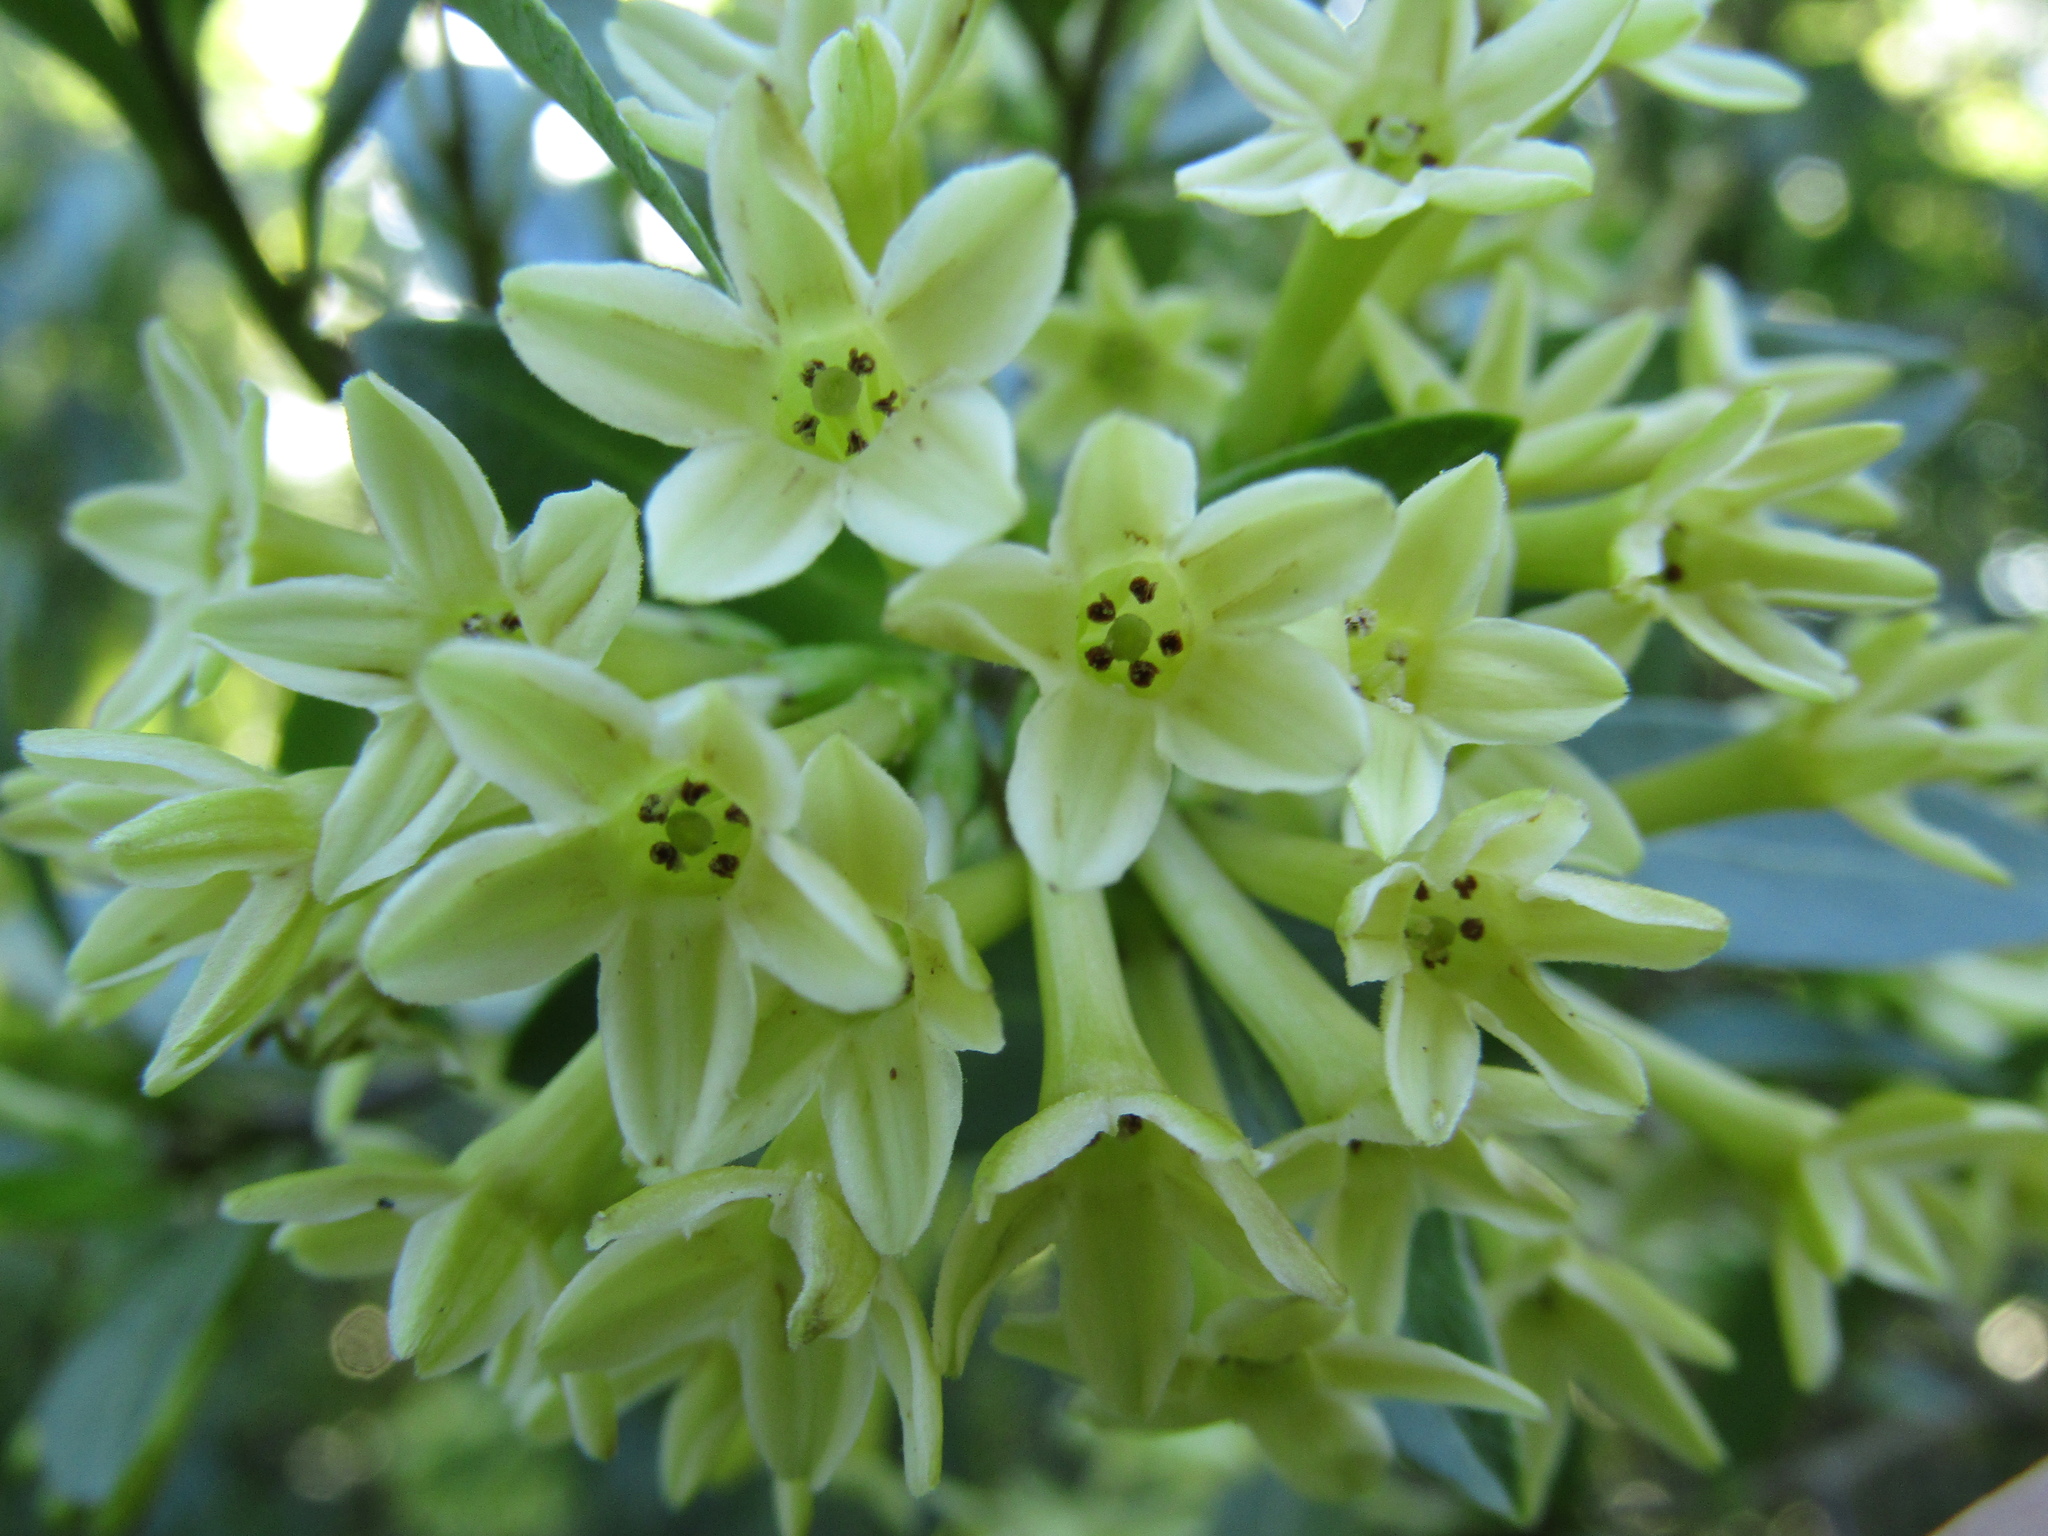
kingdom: Plantae
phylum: Tracheophyta
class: Magnoliopsida
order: Solanales
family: Solanaceae
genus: Cestrum
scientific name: Cestrum parqui
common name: Chilean cestrum
